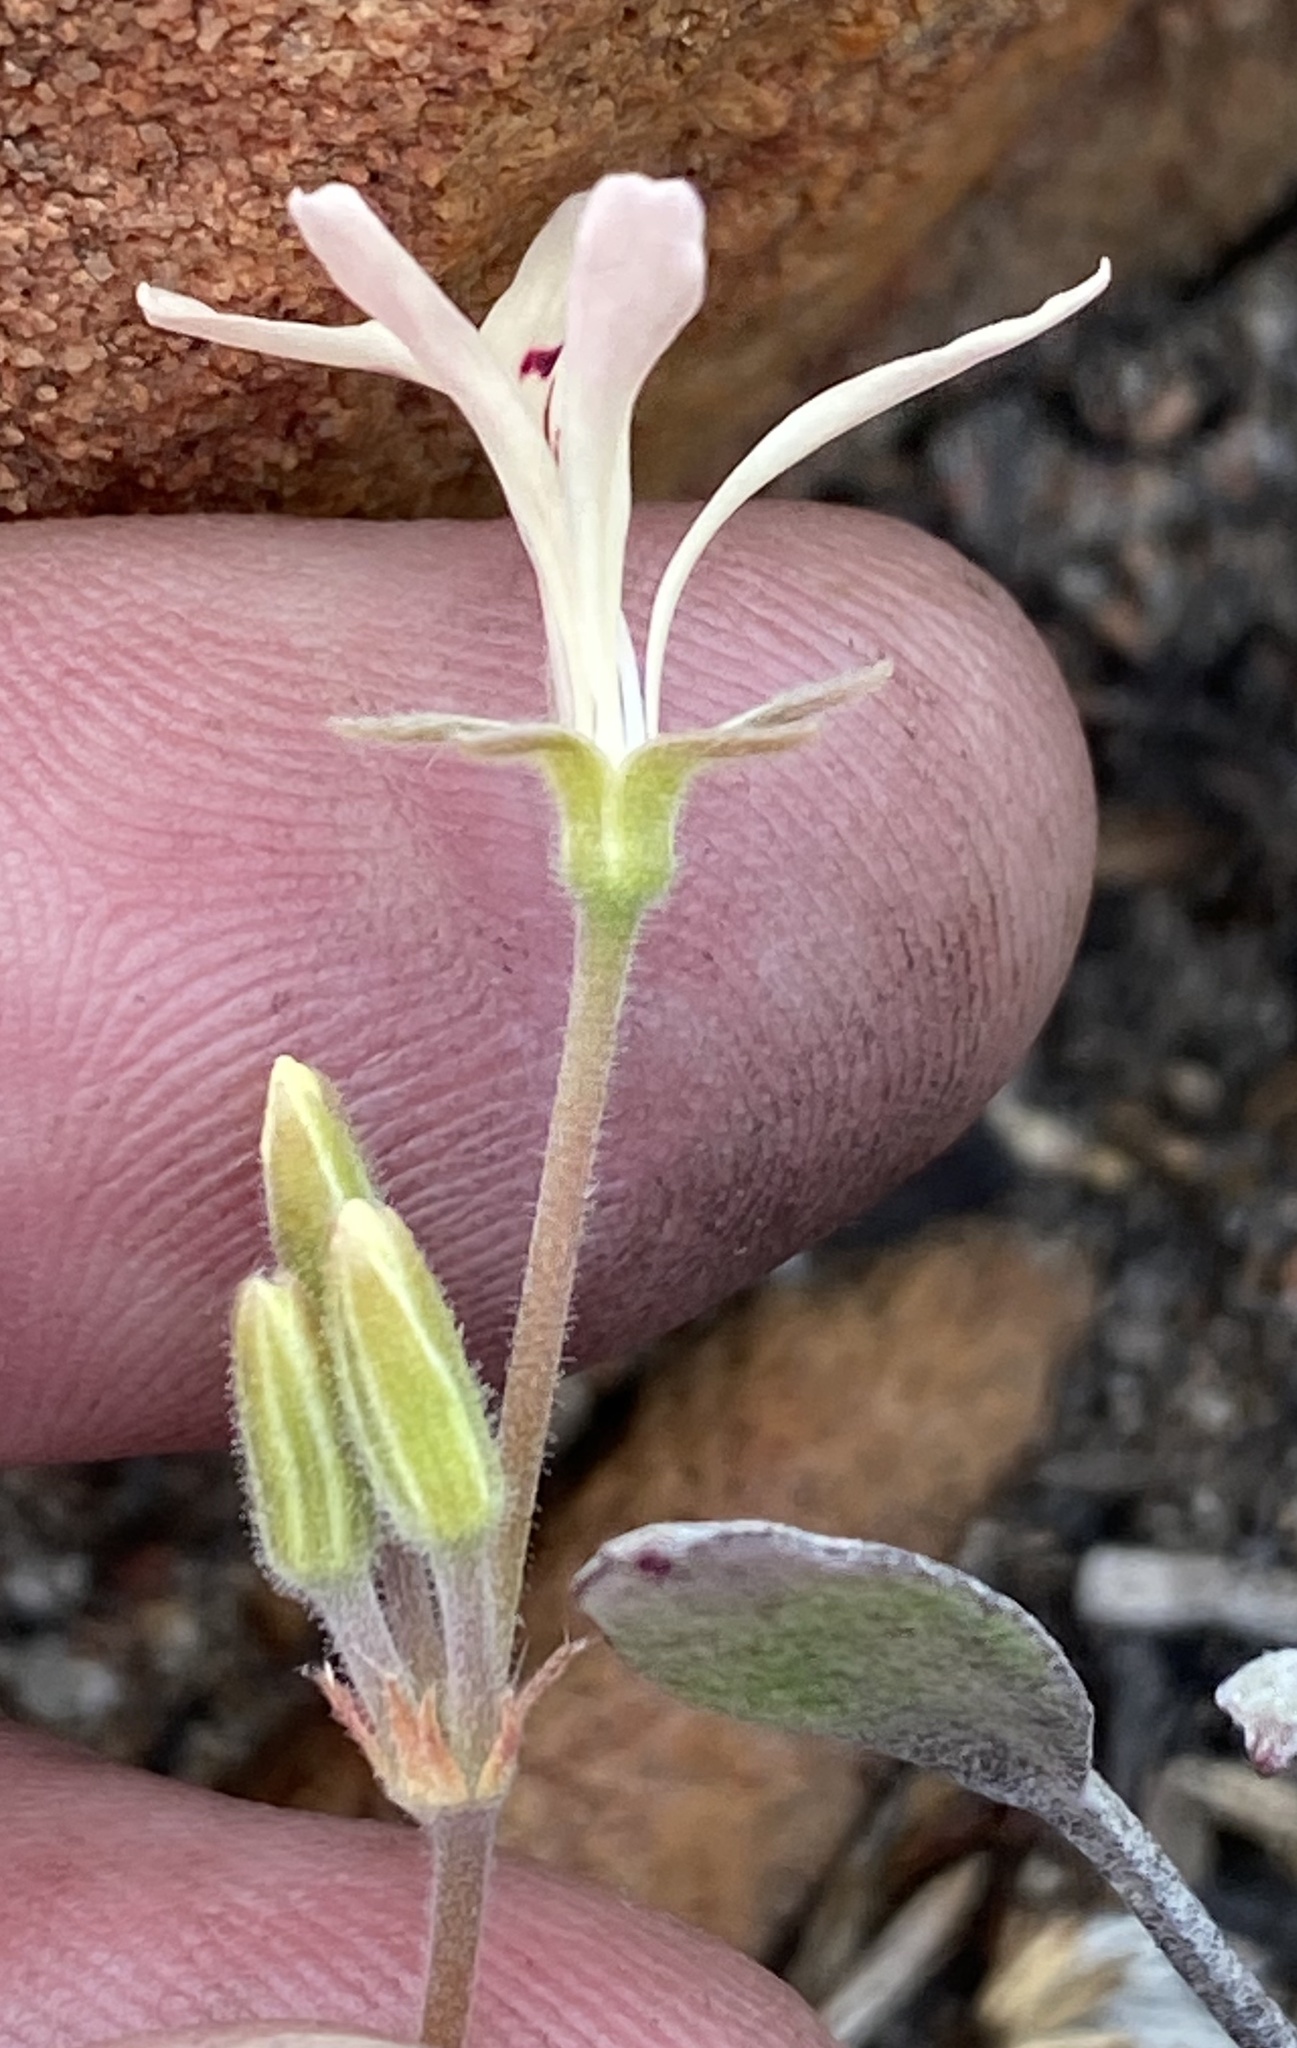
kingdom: Plantae
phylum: Tracheophyta
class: Magnoliopsida
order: Geraniales
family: Geraniaceae
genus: Pelargonium
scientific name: Pelargonium pinnatum
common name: Pinnated pelargonium
